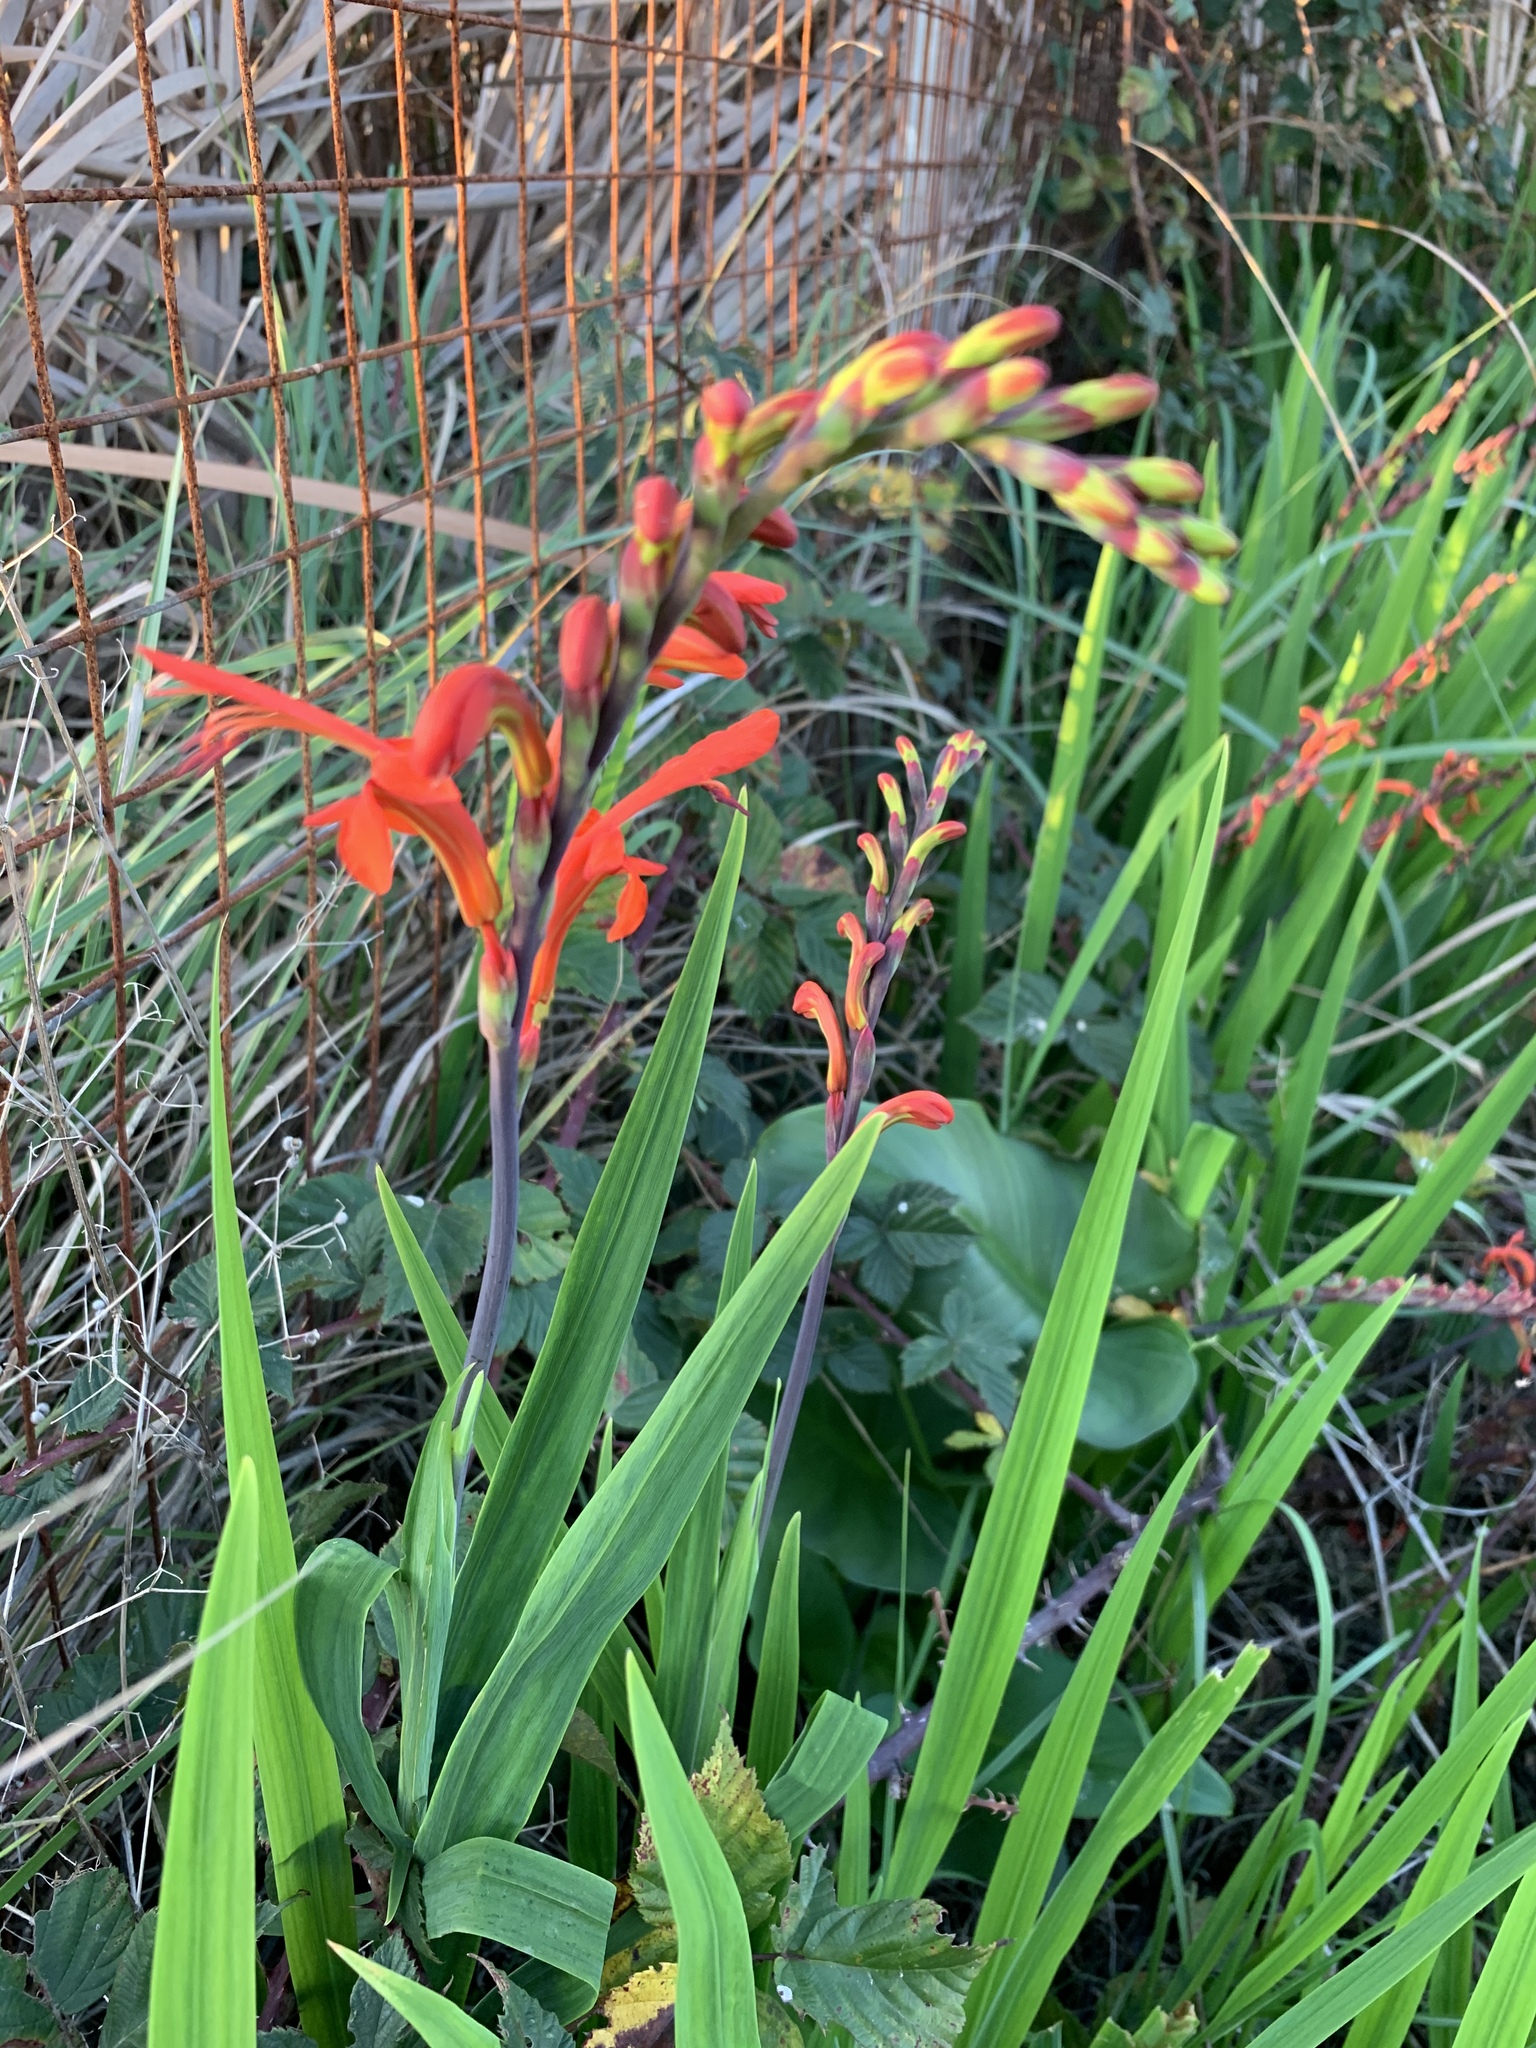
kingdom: Plantae
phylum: Tracheophyta
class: Liliopsida
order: Asparagales
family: Iridaceae
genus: Chasmanthe
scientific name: Chasmanthe aethiopica
